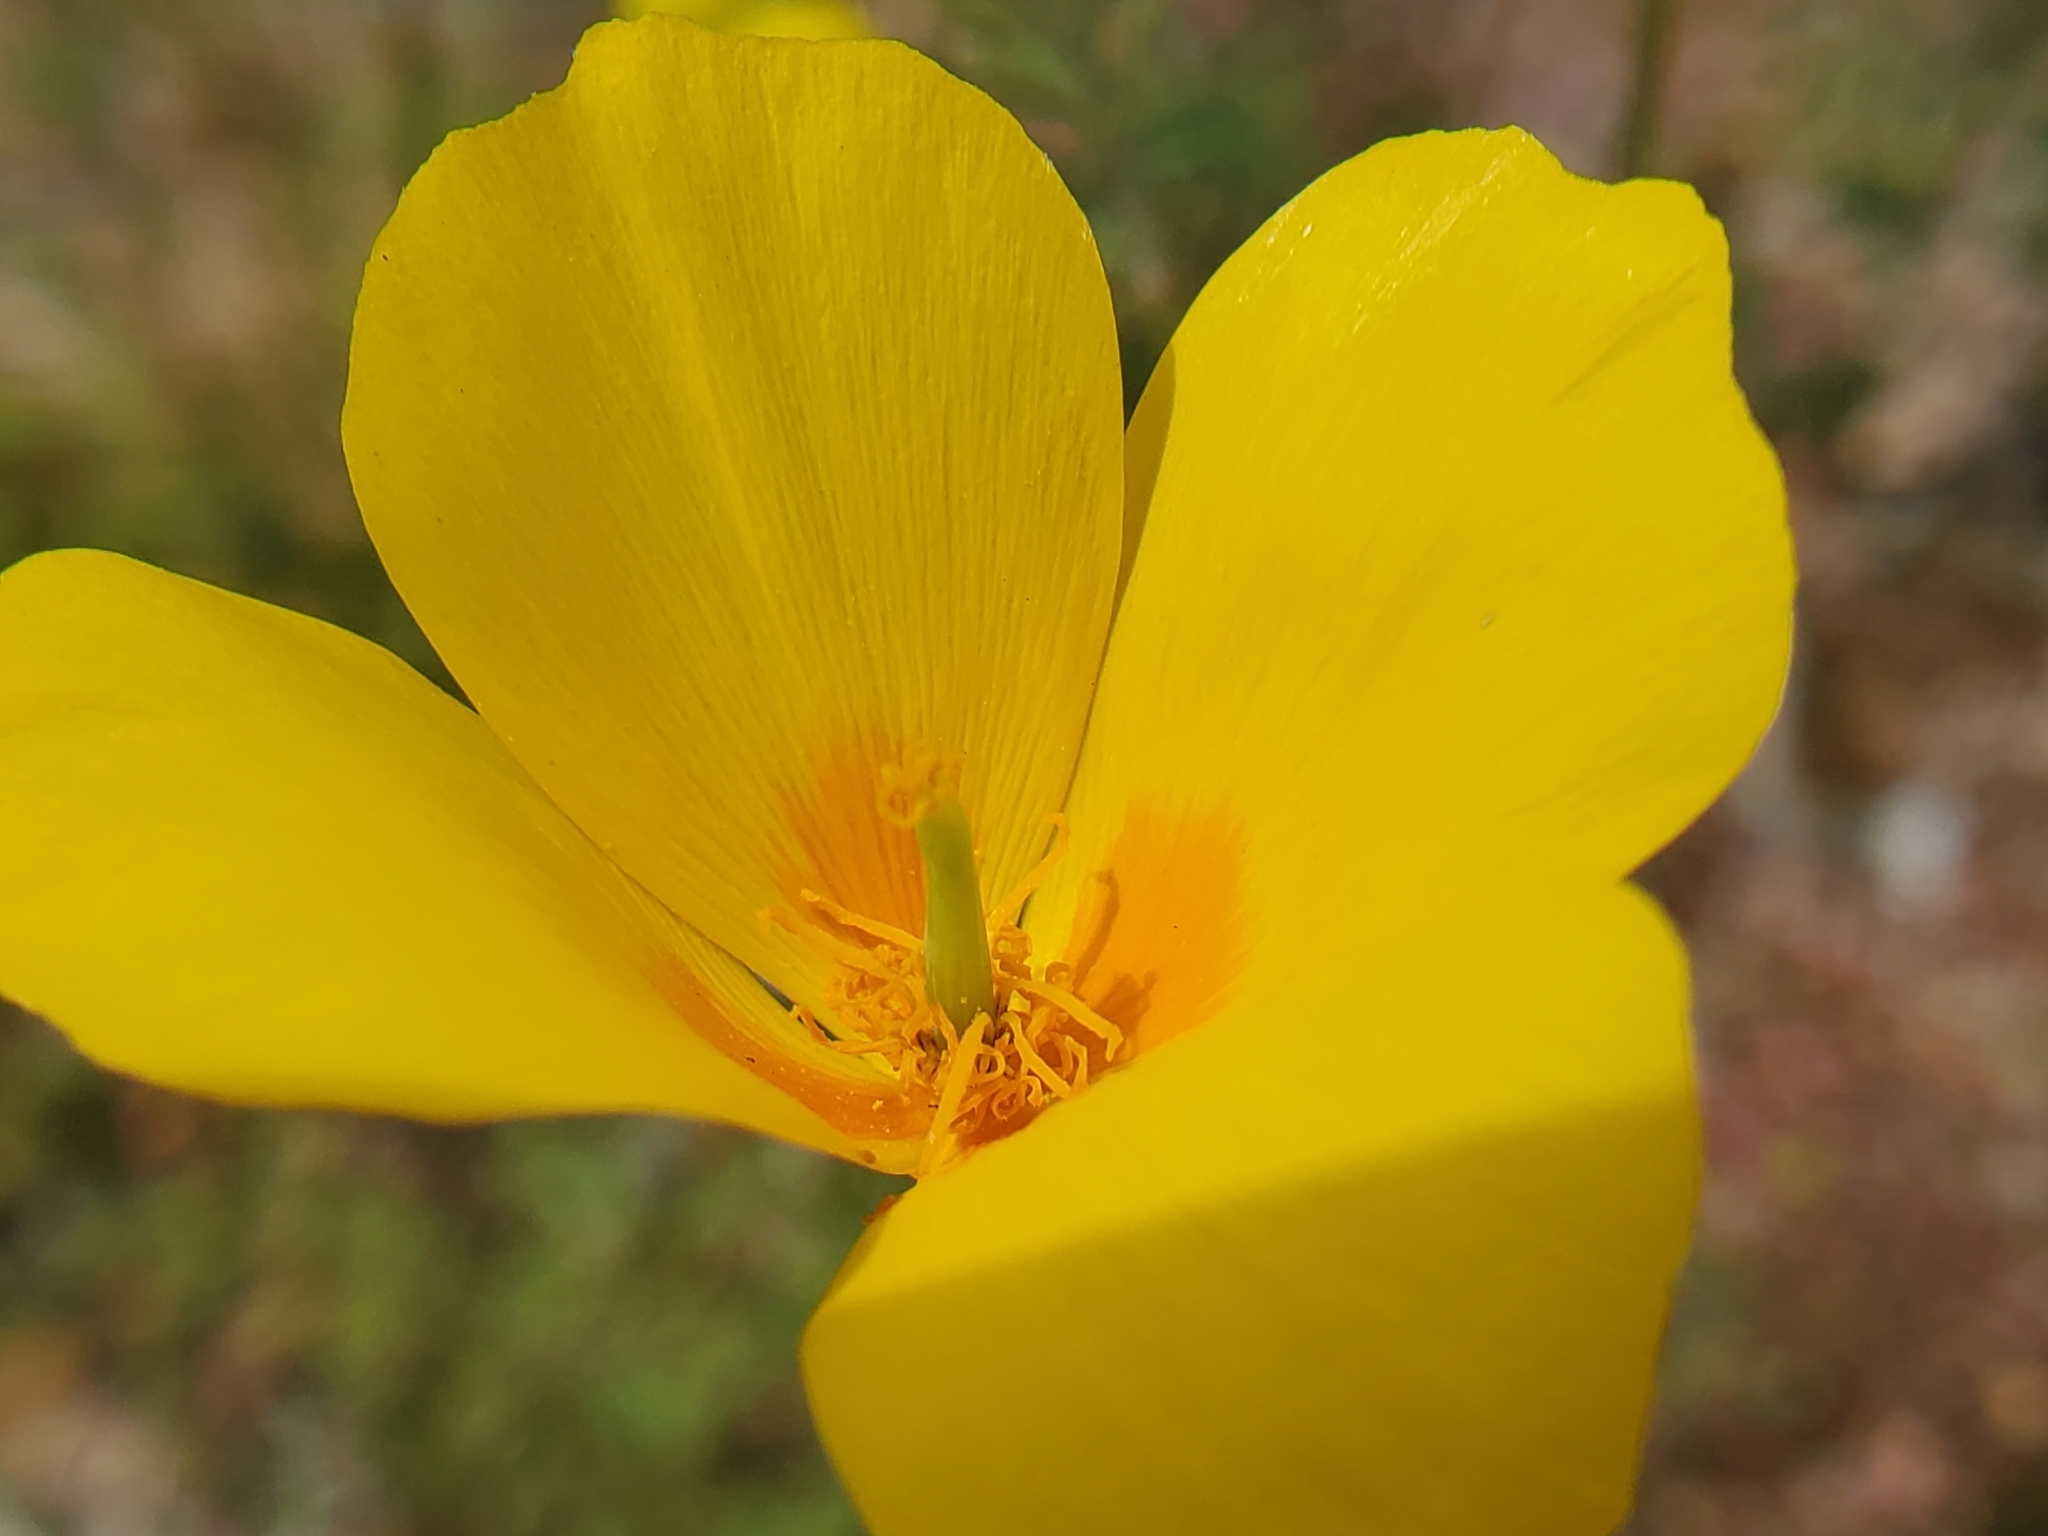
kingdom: Plantae
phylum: Tracheophyta
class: Magnoliopsida
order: Ranunculales
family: Papaveraceae
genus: Eschscholzia
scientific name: Eschscholzia californica
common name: California poppy
